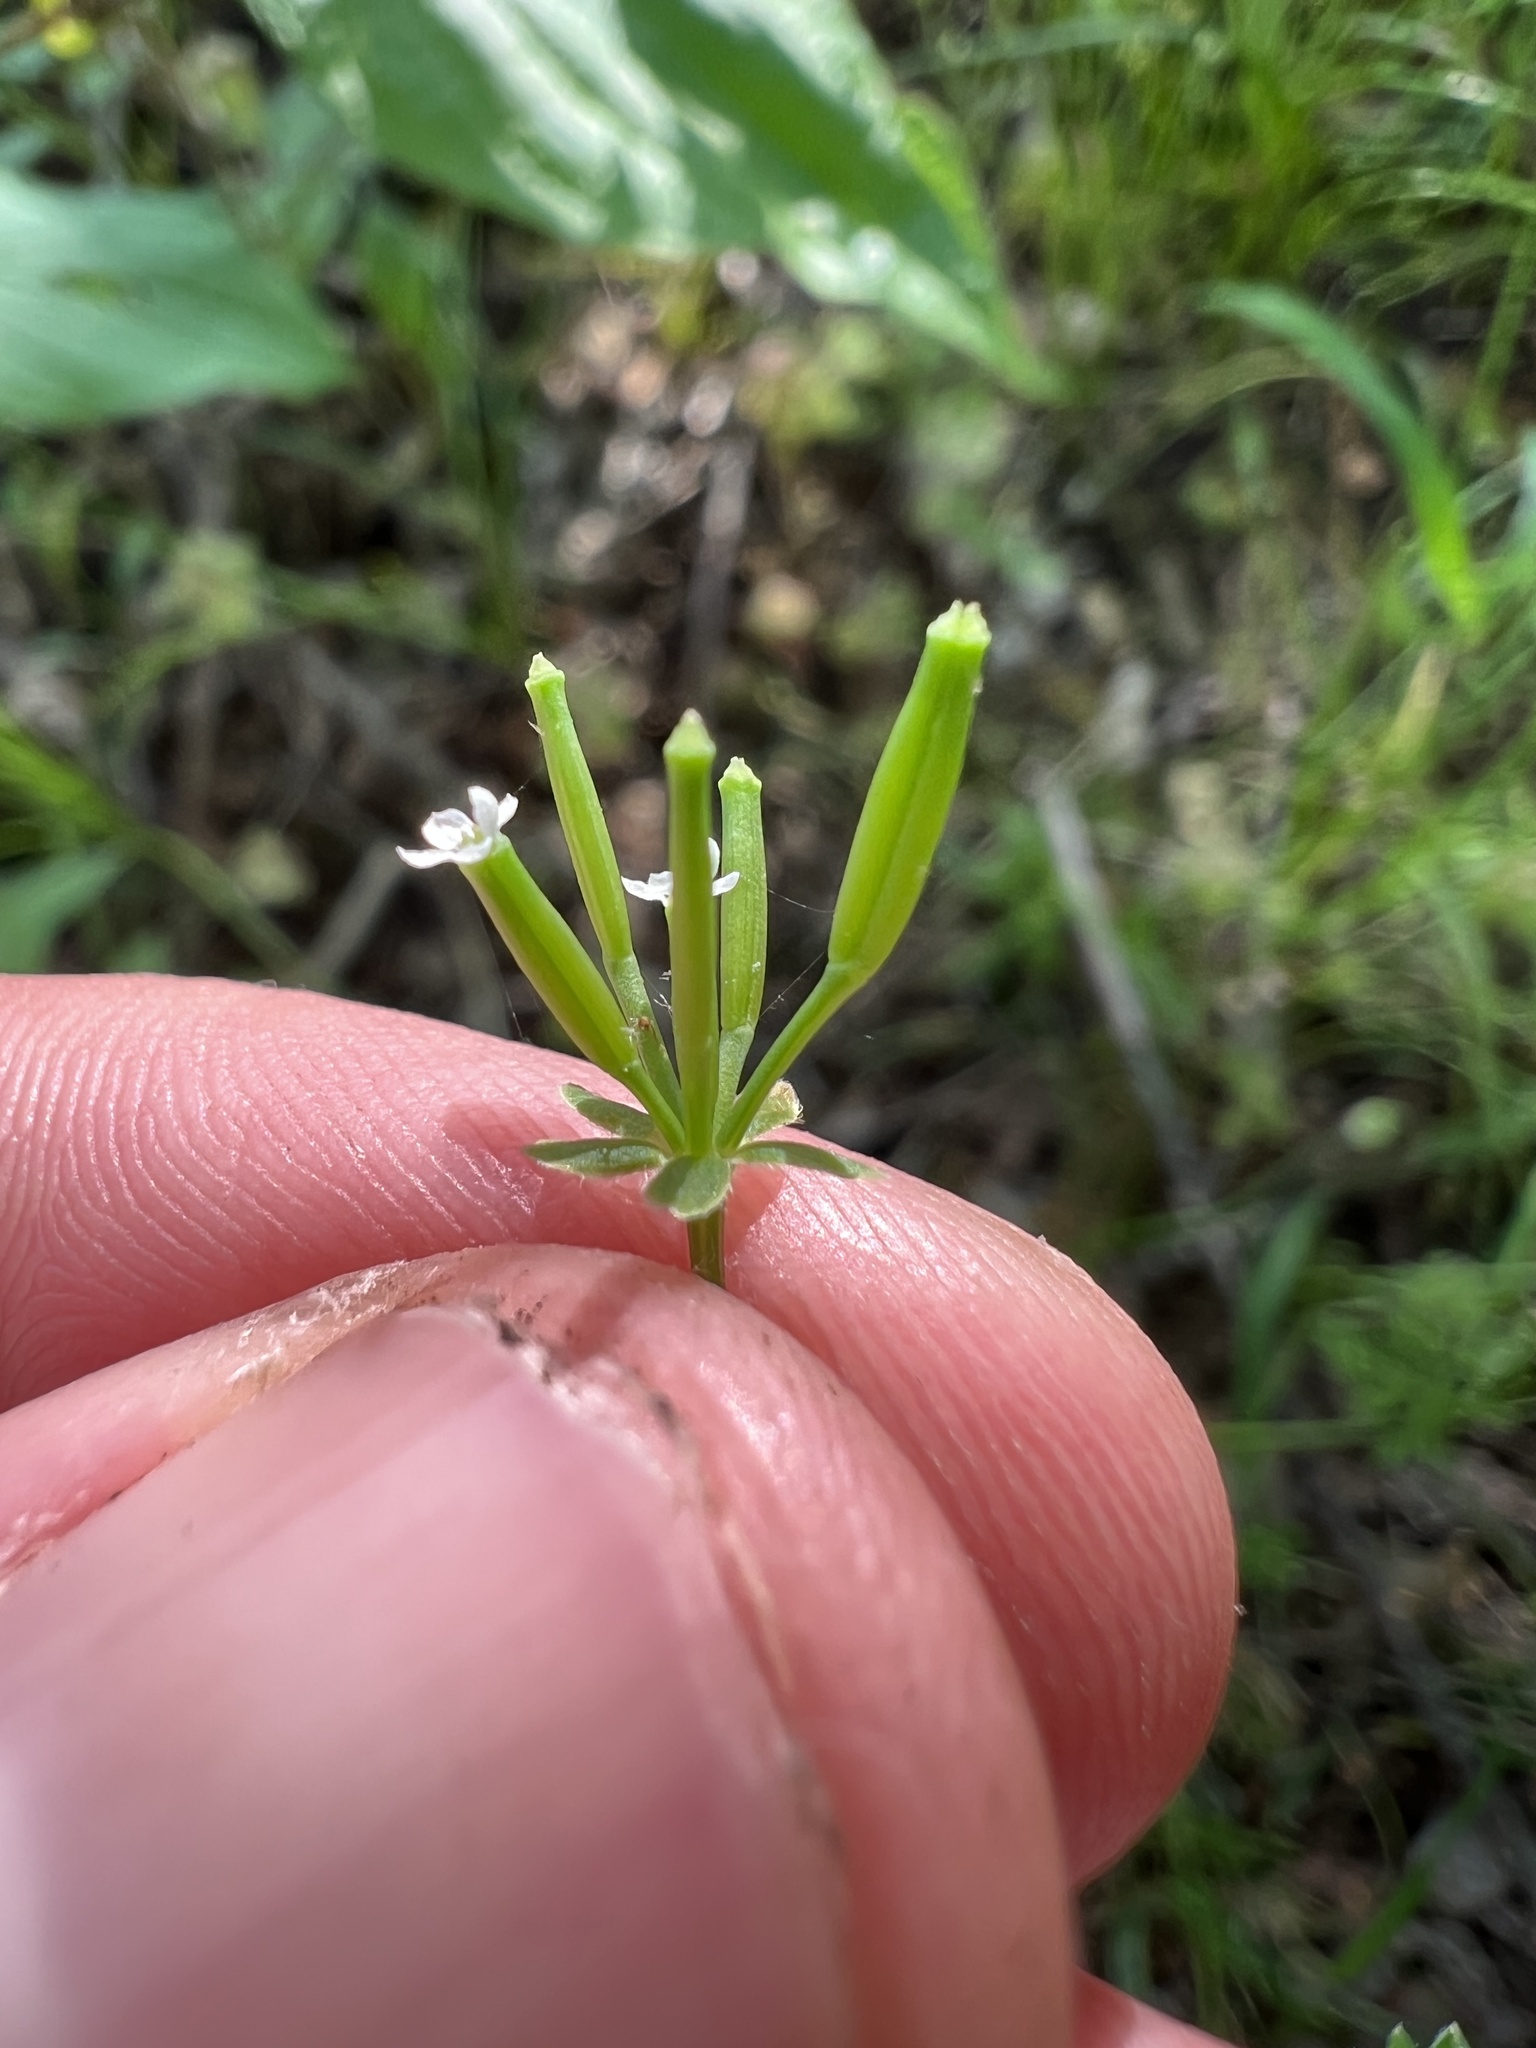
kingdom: Plantae
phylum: Tracheophyta
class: Magnoliopsida
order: Apiales
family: Apiaceae
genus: Chaerophyllum
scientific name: Chaerophyllum procumbens
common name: Spreading chervil
